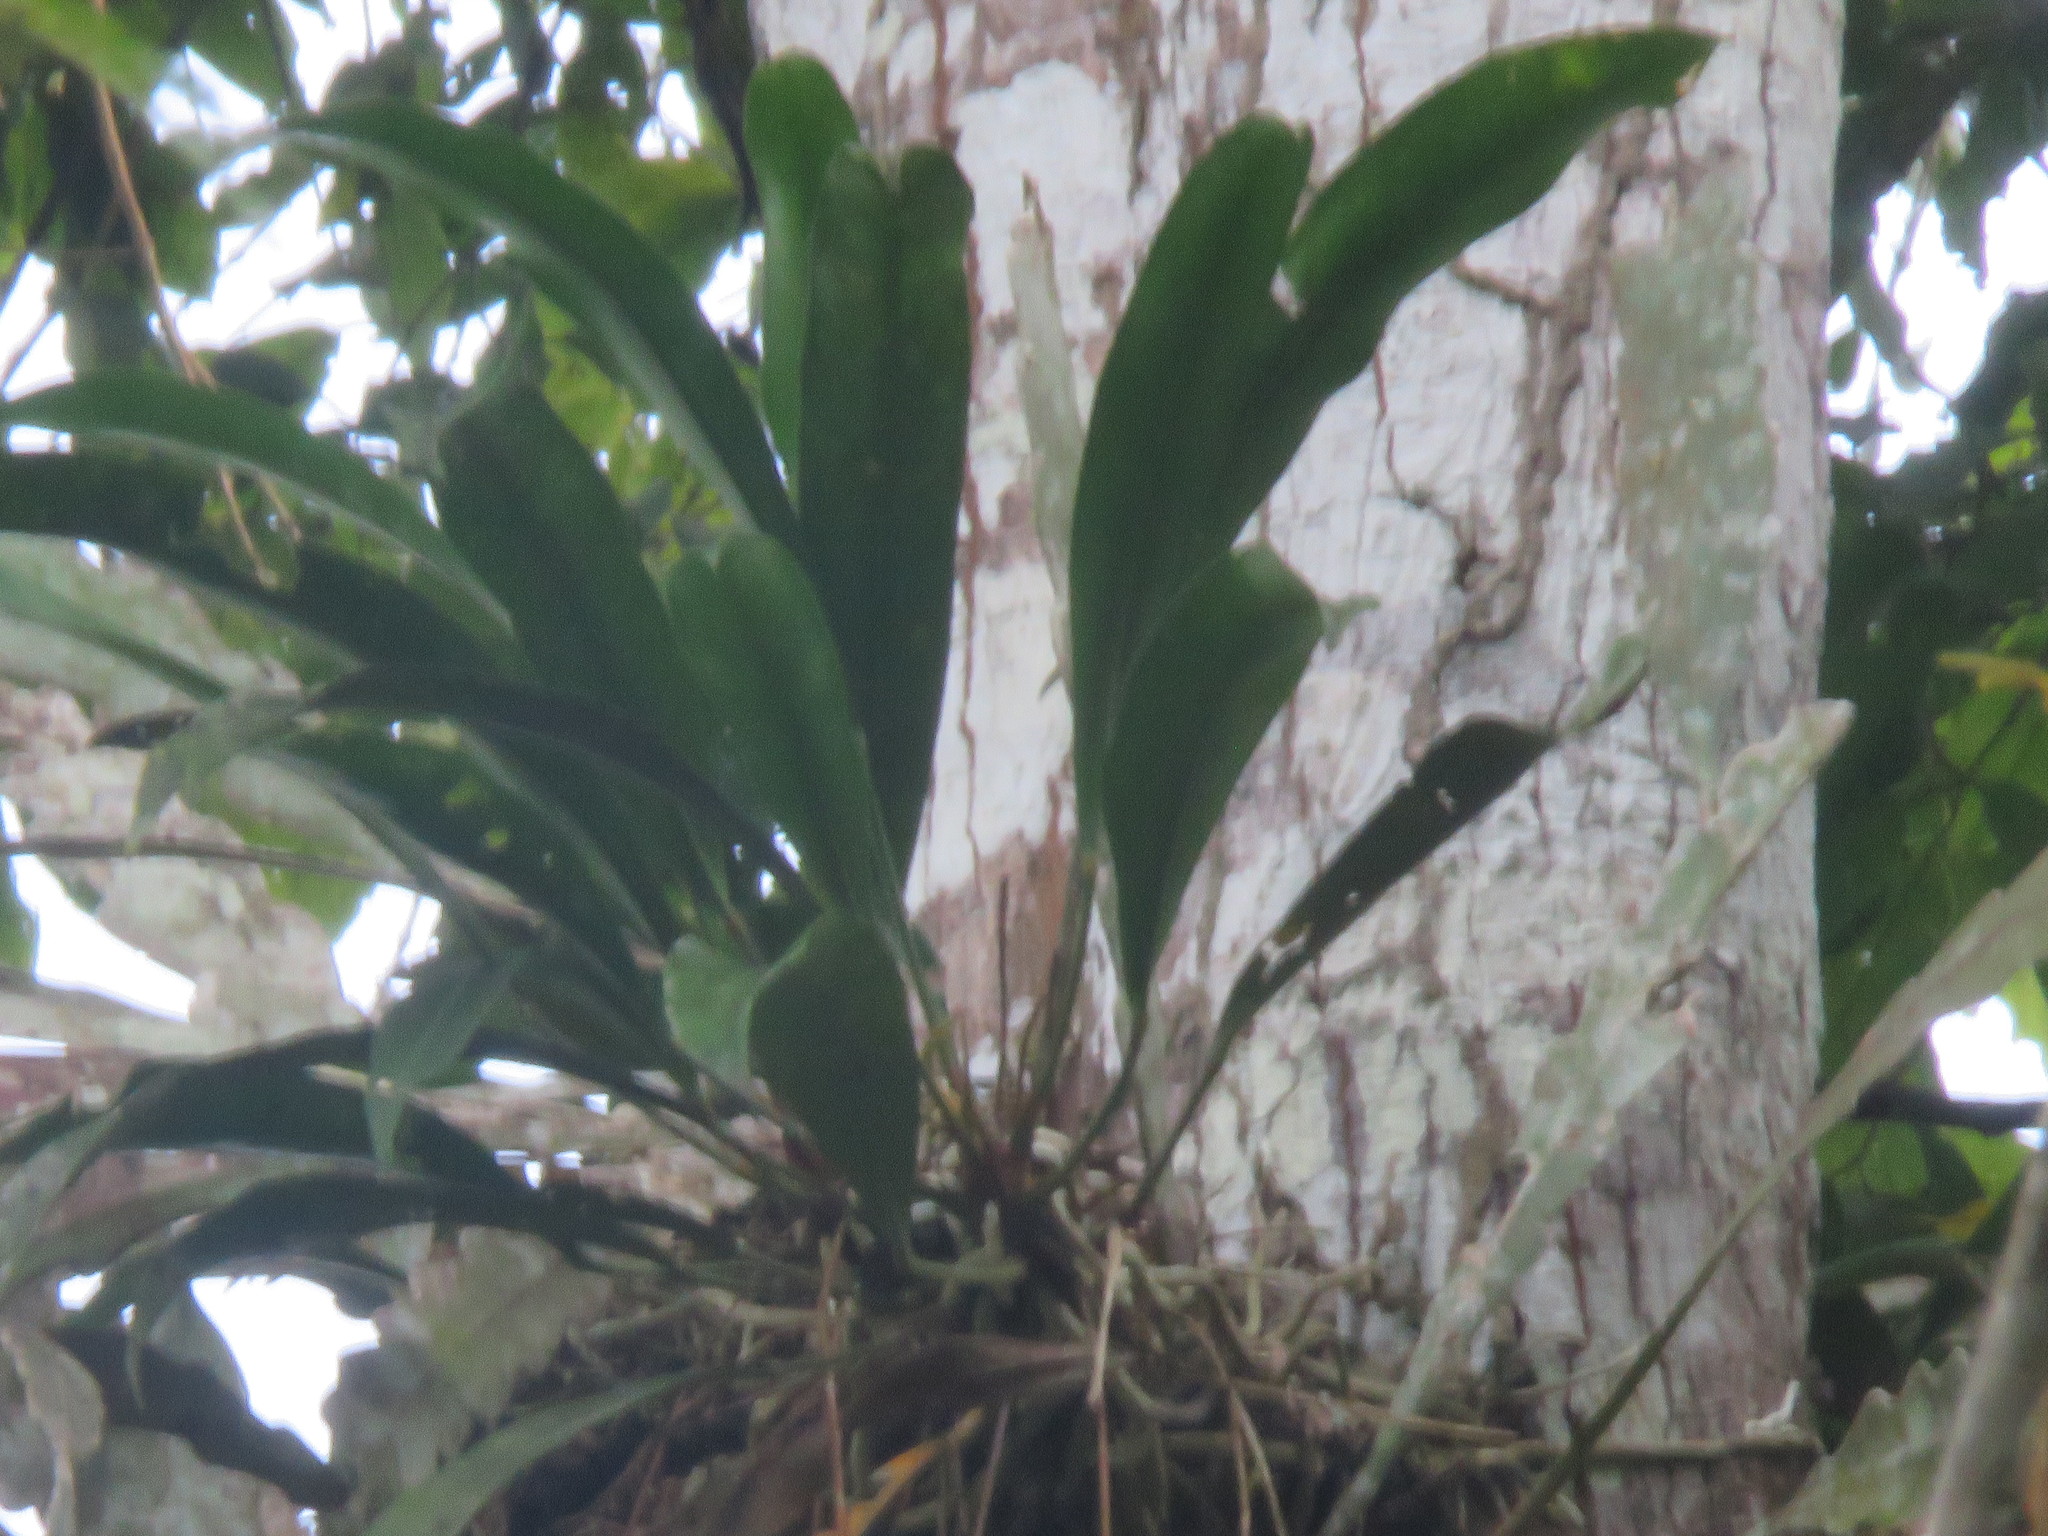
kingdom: Plantae
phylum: Tracheophyta
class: Liliopsida
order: Alismatales
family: Araceae
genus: Anthurium
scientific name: Anthurium gracile
